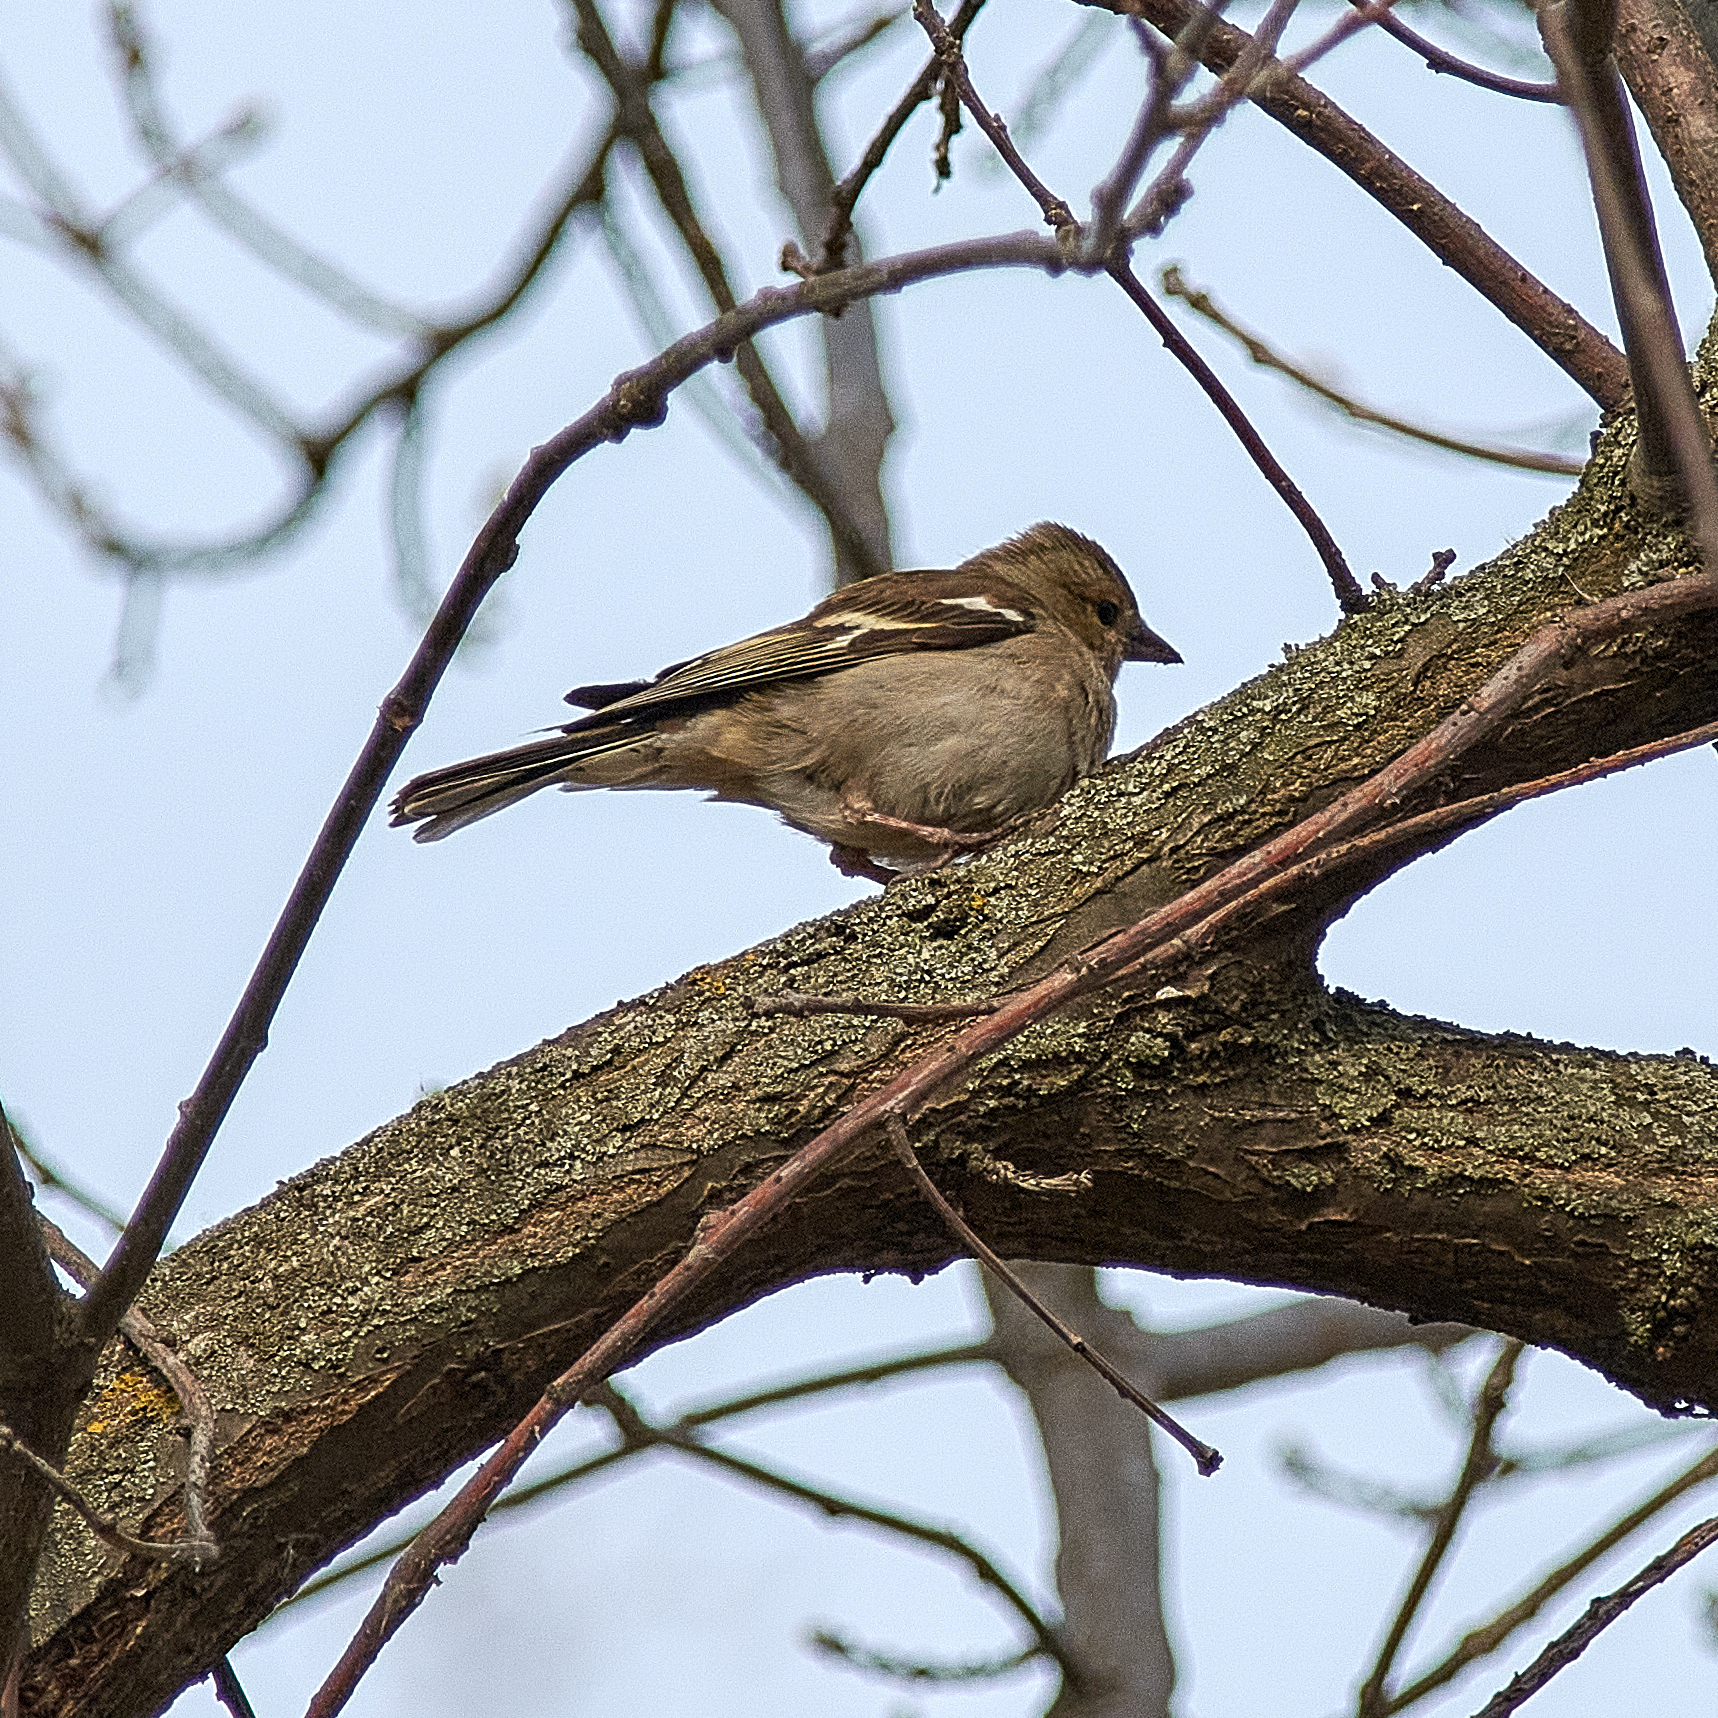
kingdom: Animalia
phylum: Chordata
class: Aves
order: Passeriformes
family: Fringillidae
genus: Fringilla
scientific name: Fringilla coelebs
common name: Common chaffinch
